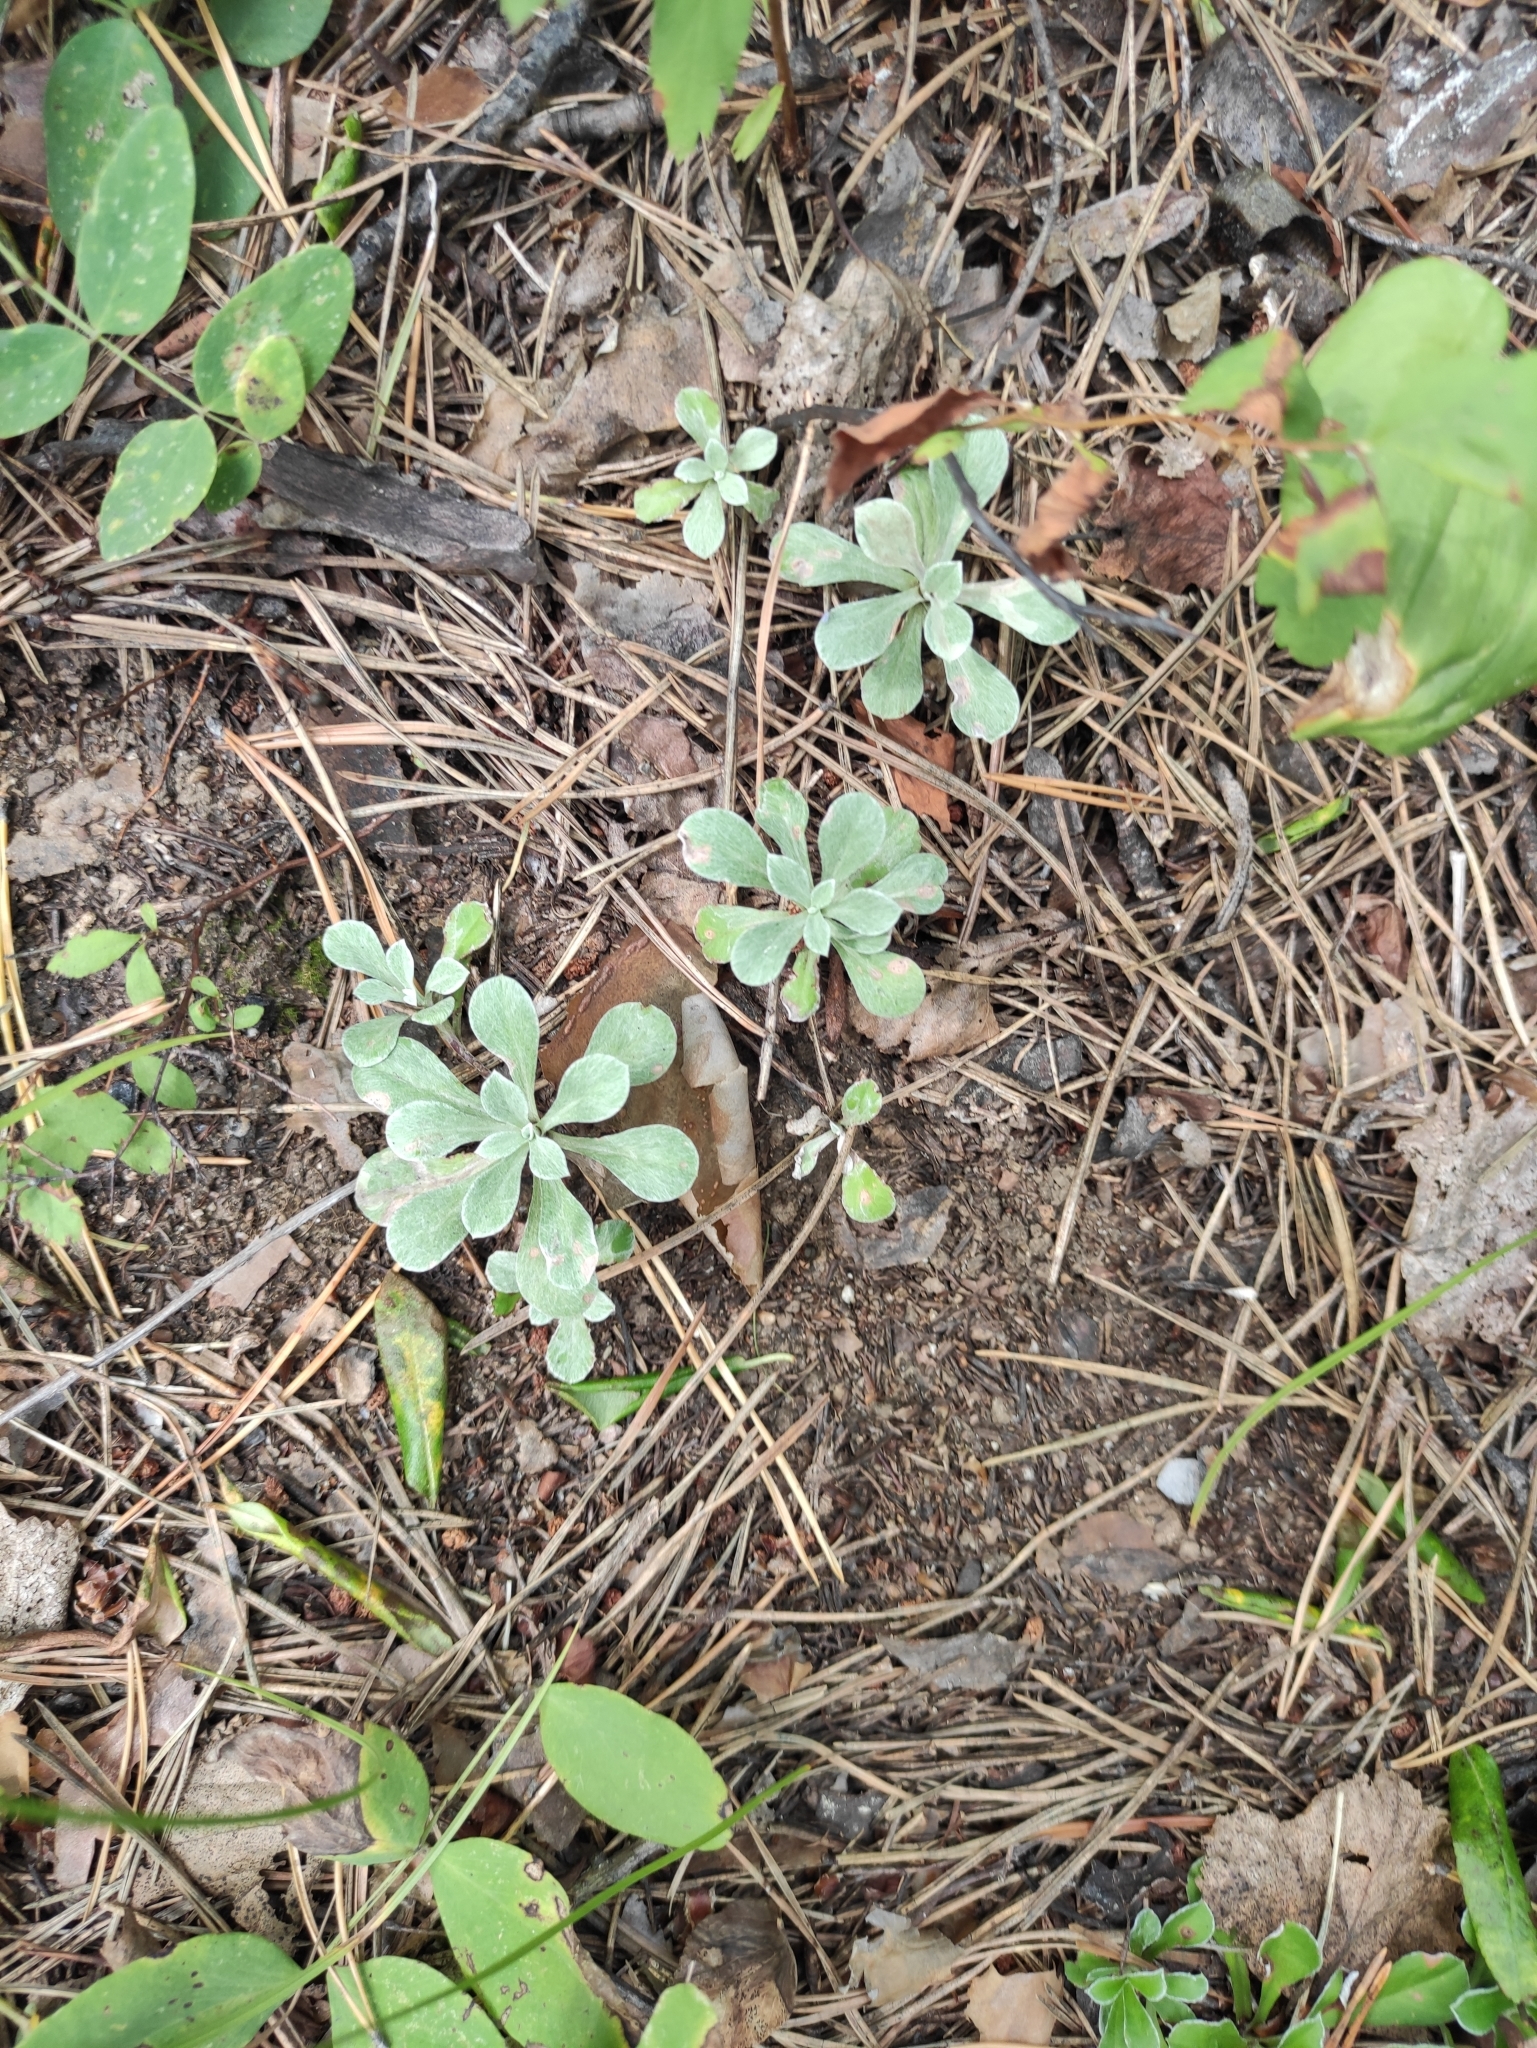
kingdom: Plantae
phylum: Tracheophyta
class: Magnoliopsida
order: Asterales
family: Asteraceae
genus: Antennaria
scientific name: Antennaria dioica
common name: Mountain everlasting
